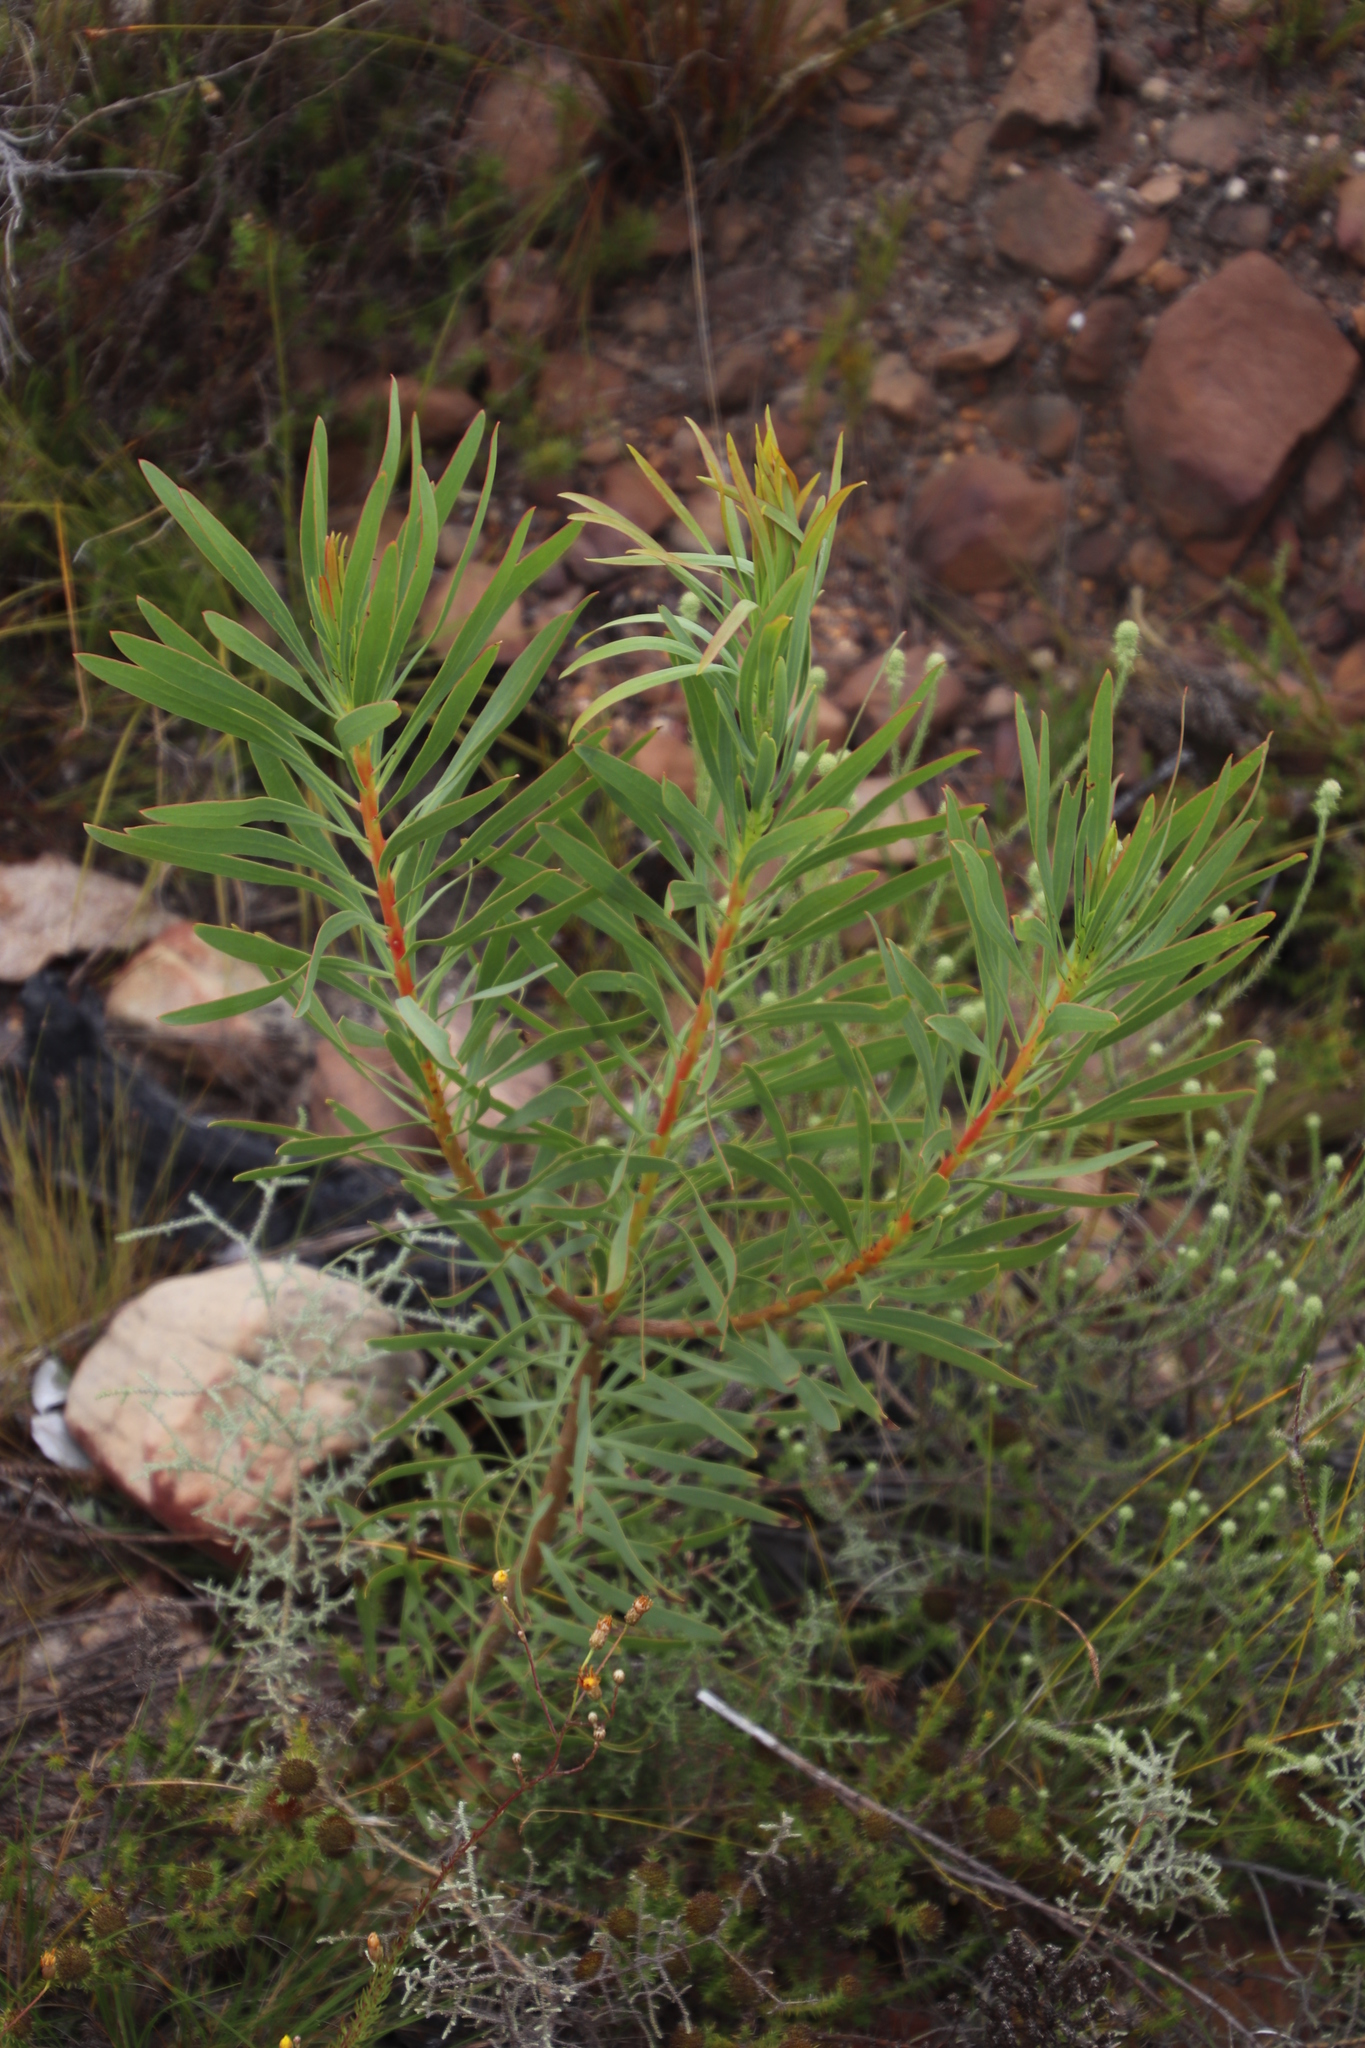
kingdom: Plantae
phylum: Tracheophyta
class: Magnoliopsida
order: Proteales
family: Proteaceae
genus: Protea
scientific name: Protea repens
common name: Sugarbush
